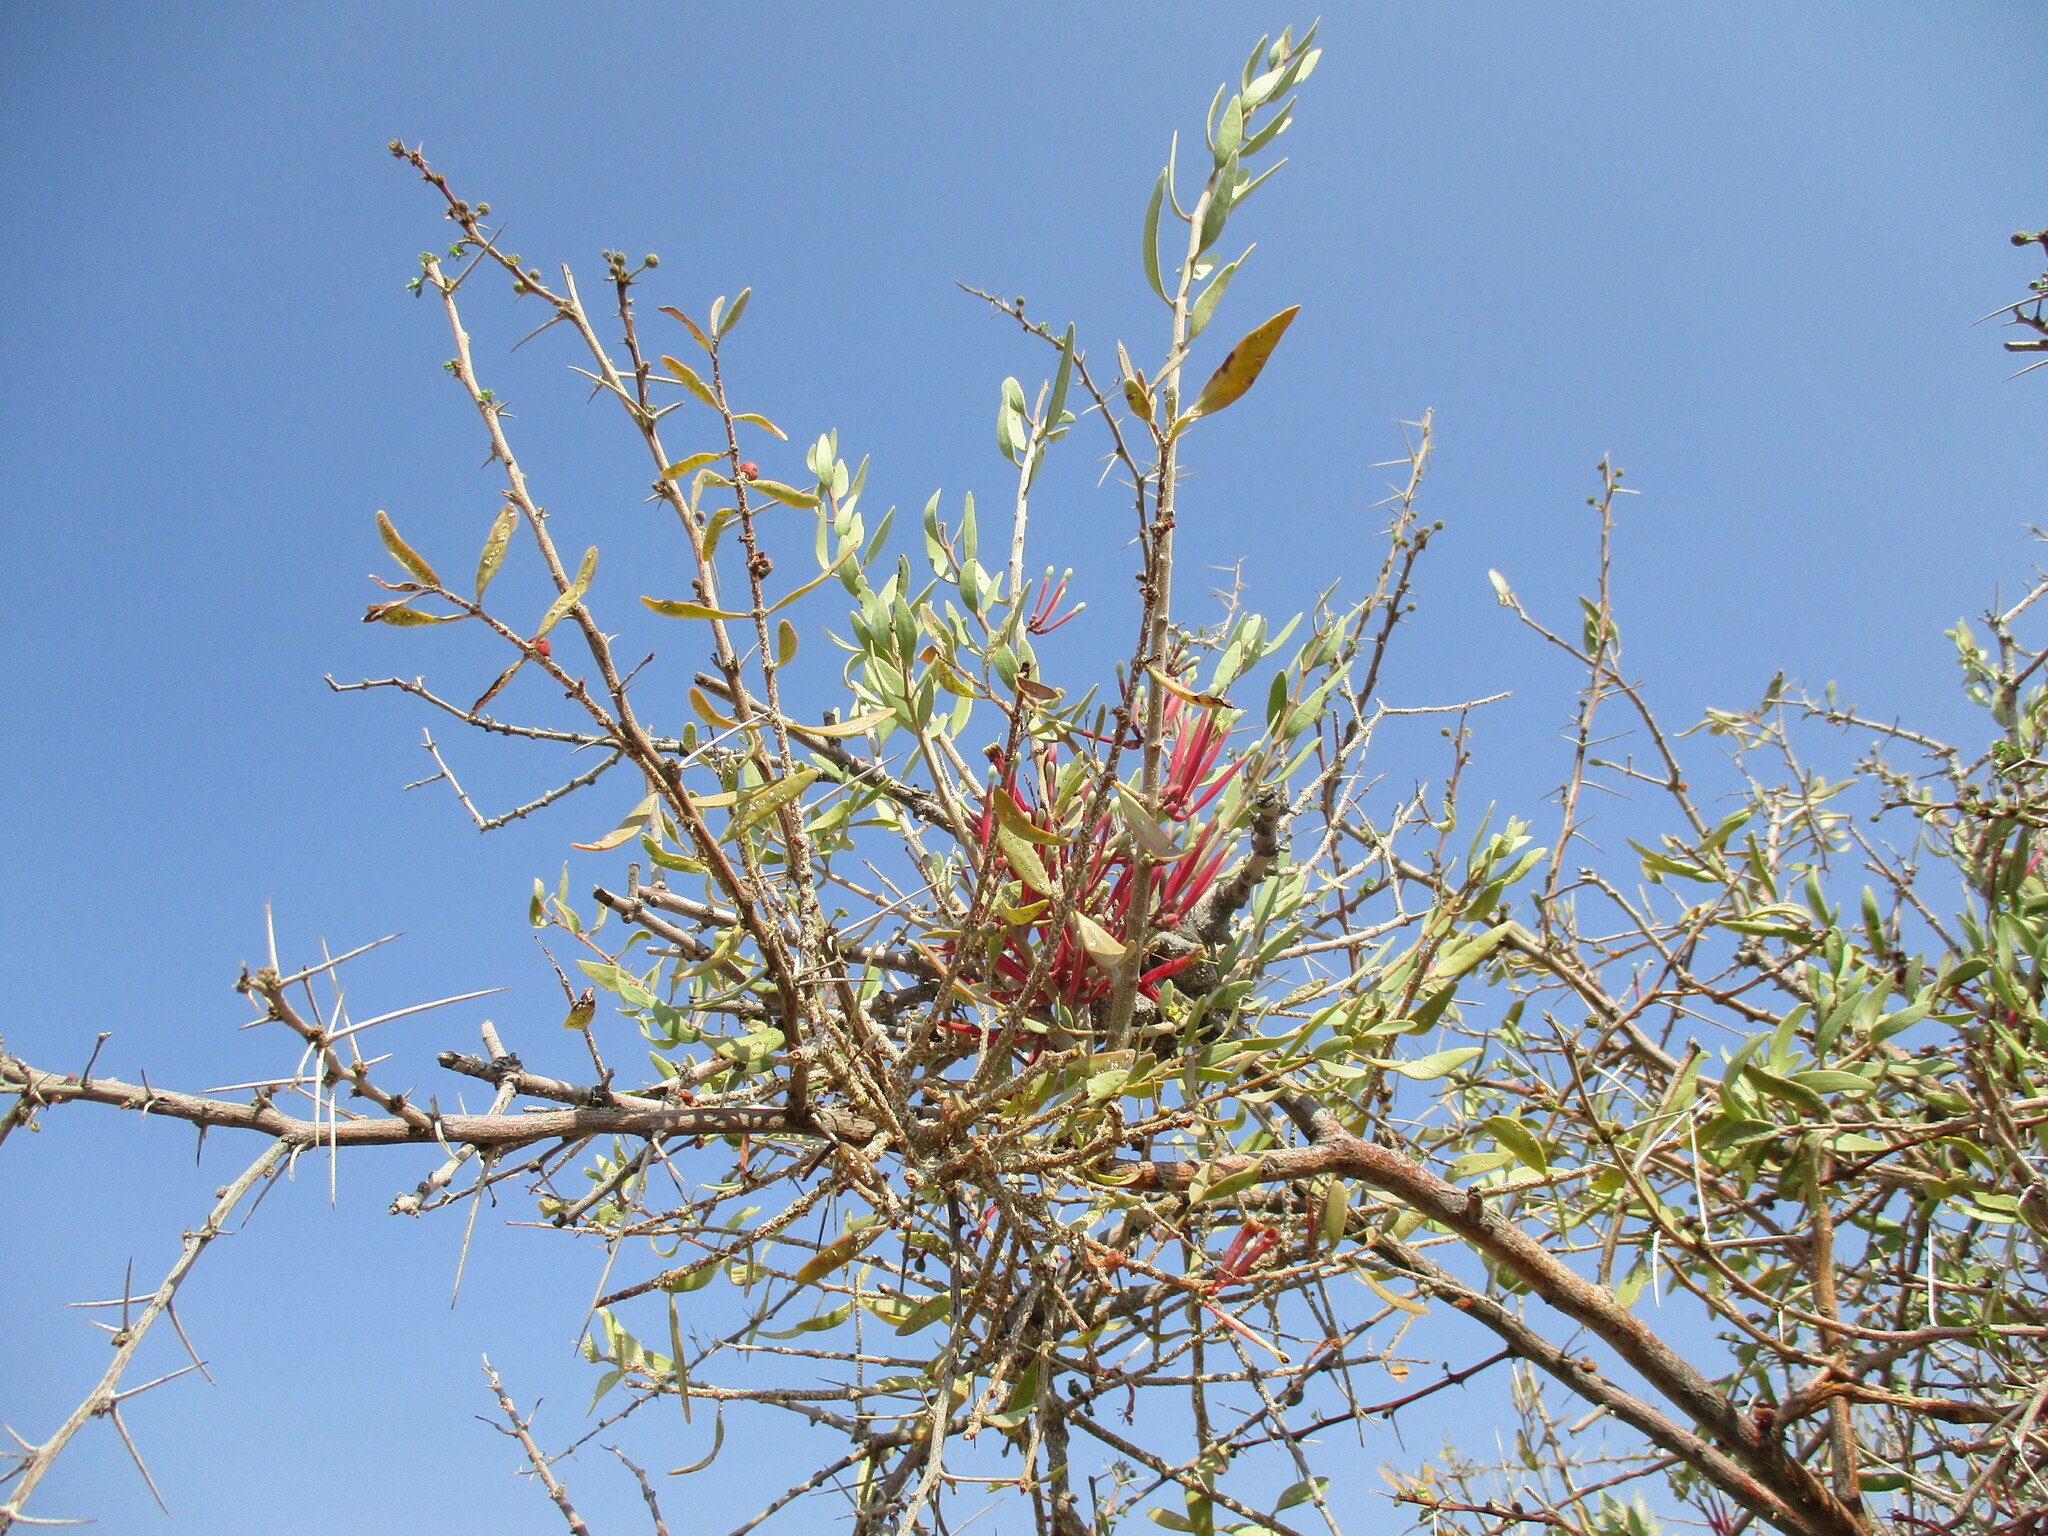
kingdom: Plantae
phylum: Tracheophyta
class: Magnoliopsida
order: Santalales
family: Loranthaceae
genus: Tapinanthus
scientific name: Tapinanthus oleifolius
